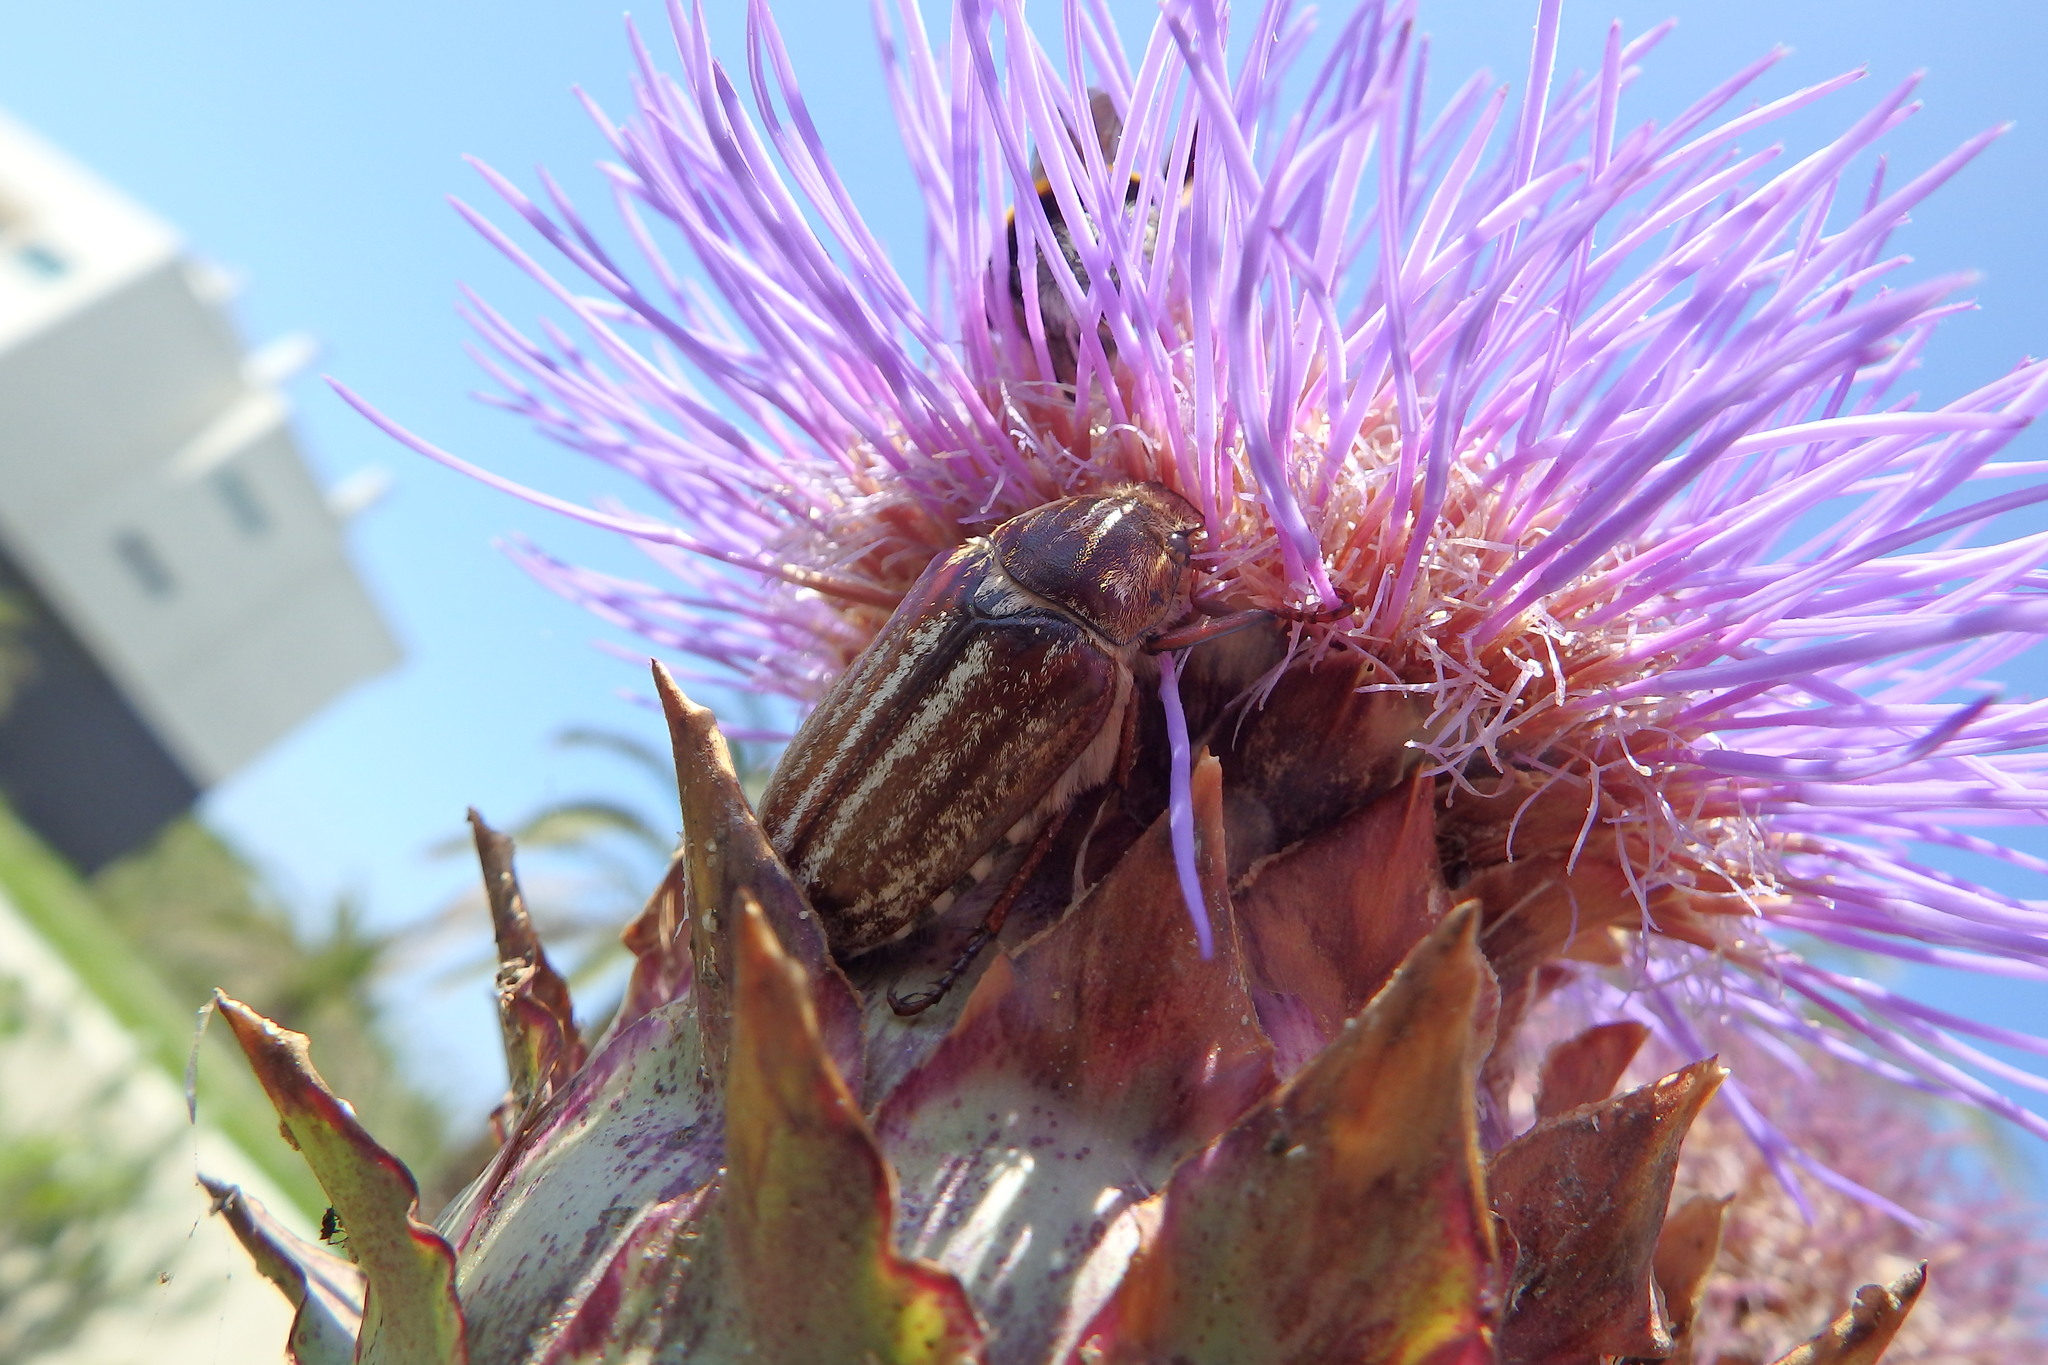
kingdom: Animalia
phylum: Arthropoda
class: Insecta
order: Coleoptera
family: Scarabaeidae
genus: Anoxia
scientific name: Anoxia australis
